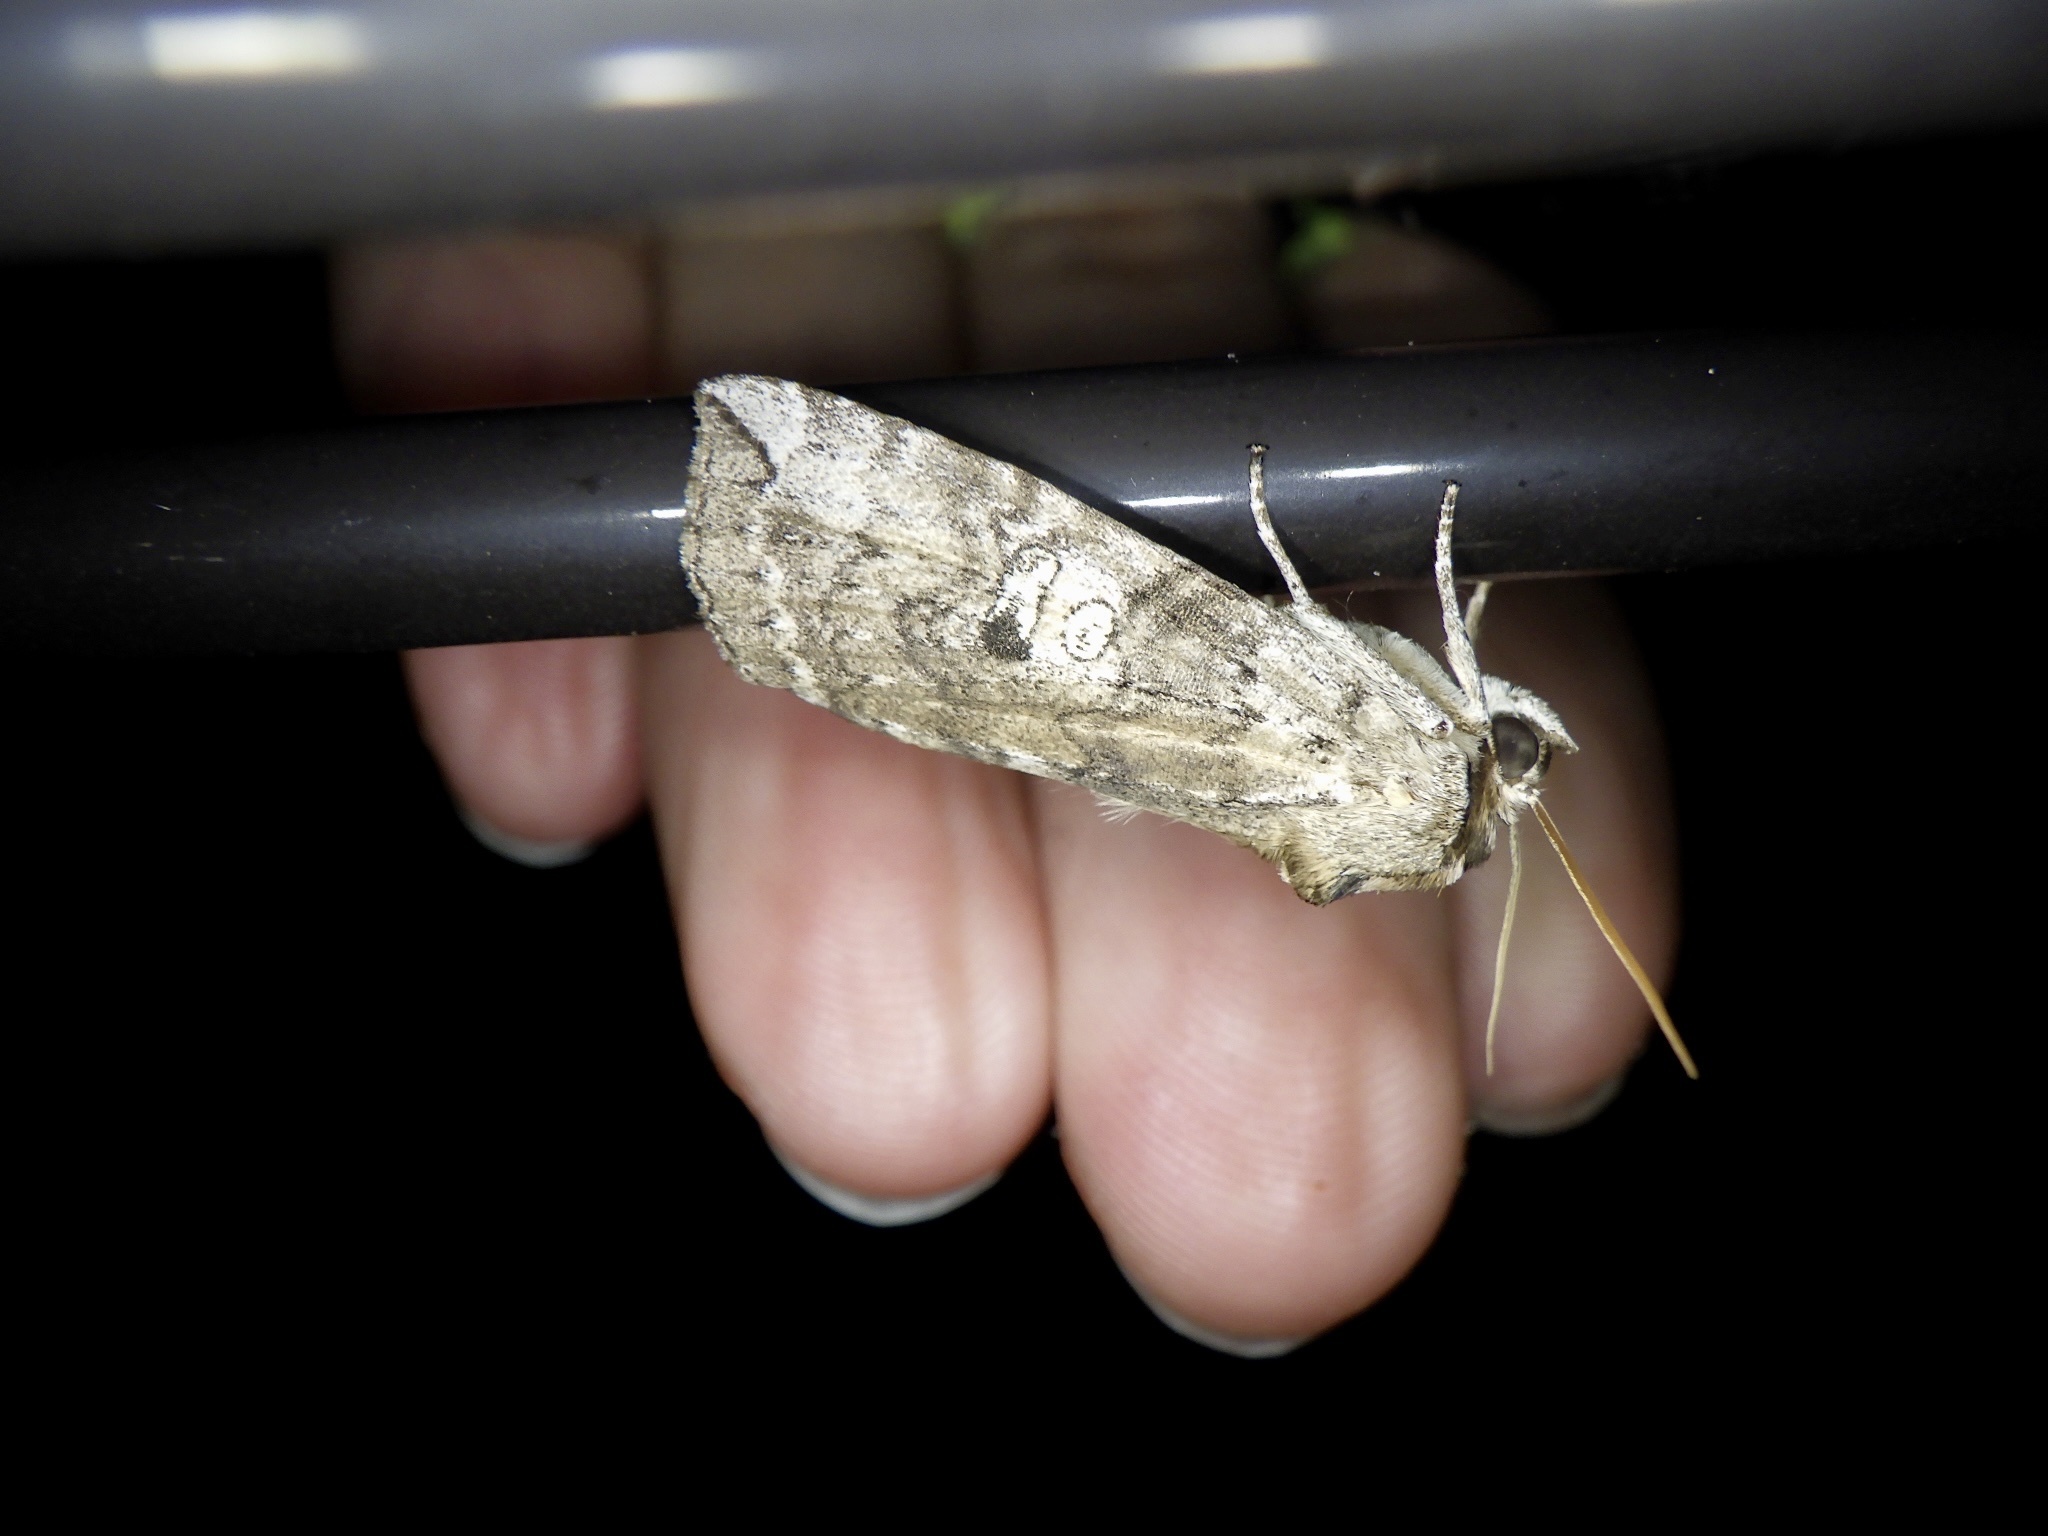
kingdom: Animalia
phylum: Arthropoda
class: Insecta
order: Lepidoptera
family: Drepanidae
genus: Tethea
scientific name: Tethea intensa
